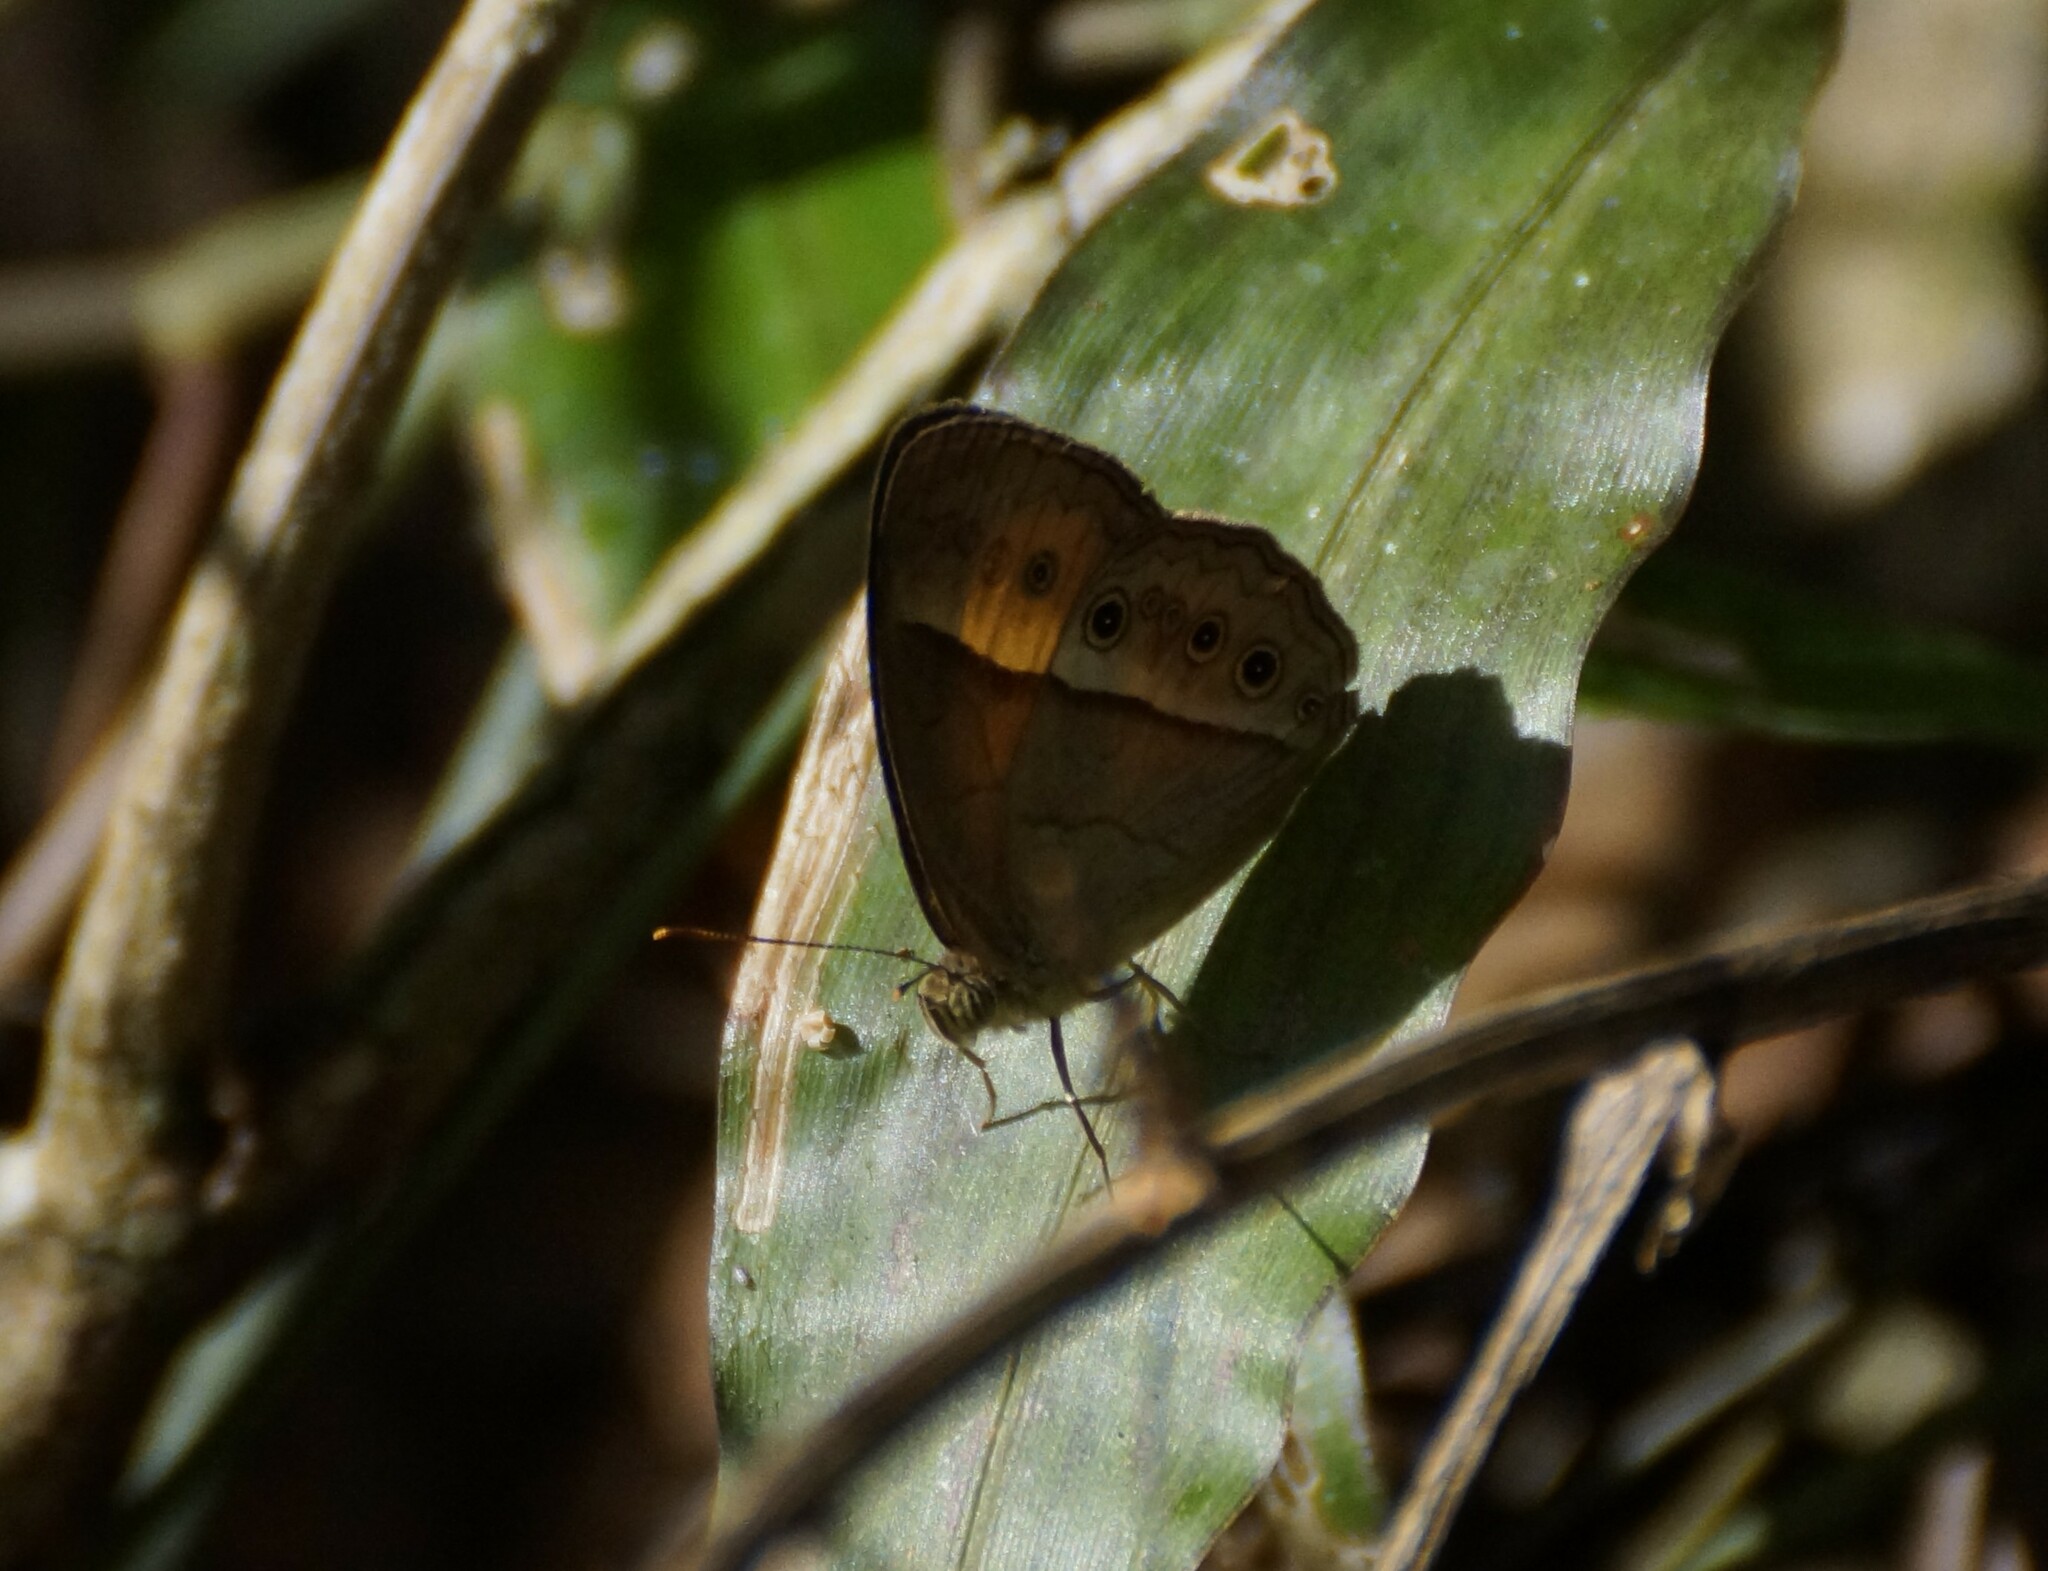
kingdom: Animalia
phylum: Arthropoda
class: Insecta
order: Lepidoptera
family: Nymphalidae
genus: Mycalesis
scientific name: Mycalesis terminus
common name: Orange bushbrown
